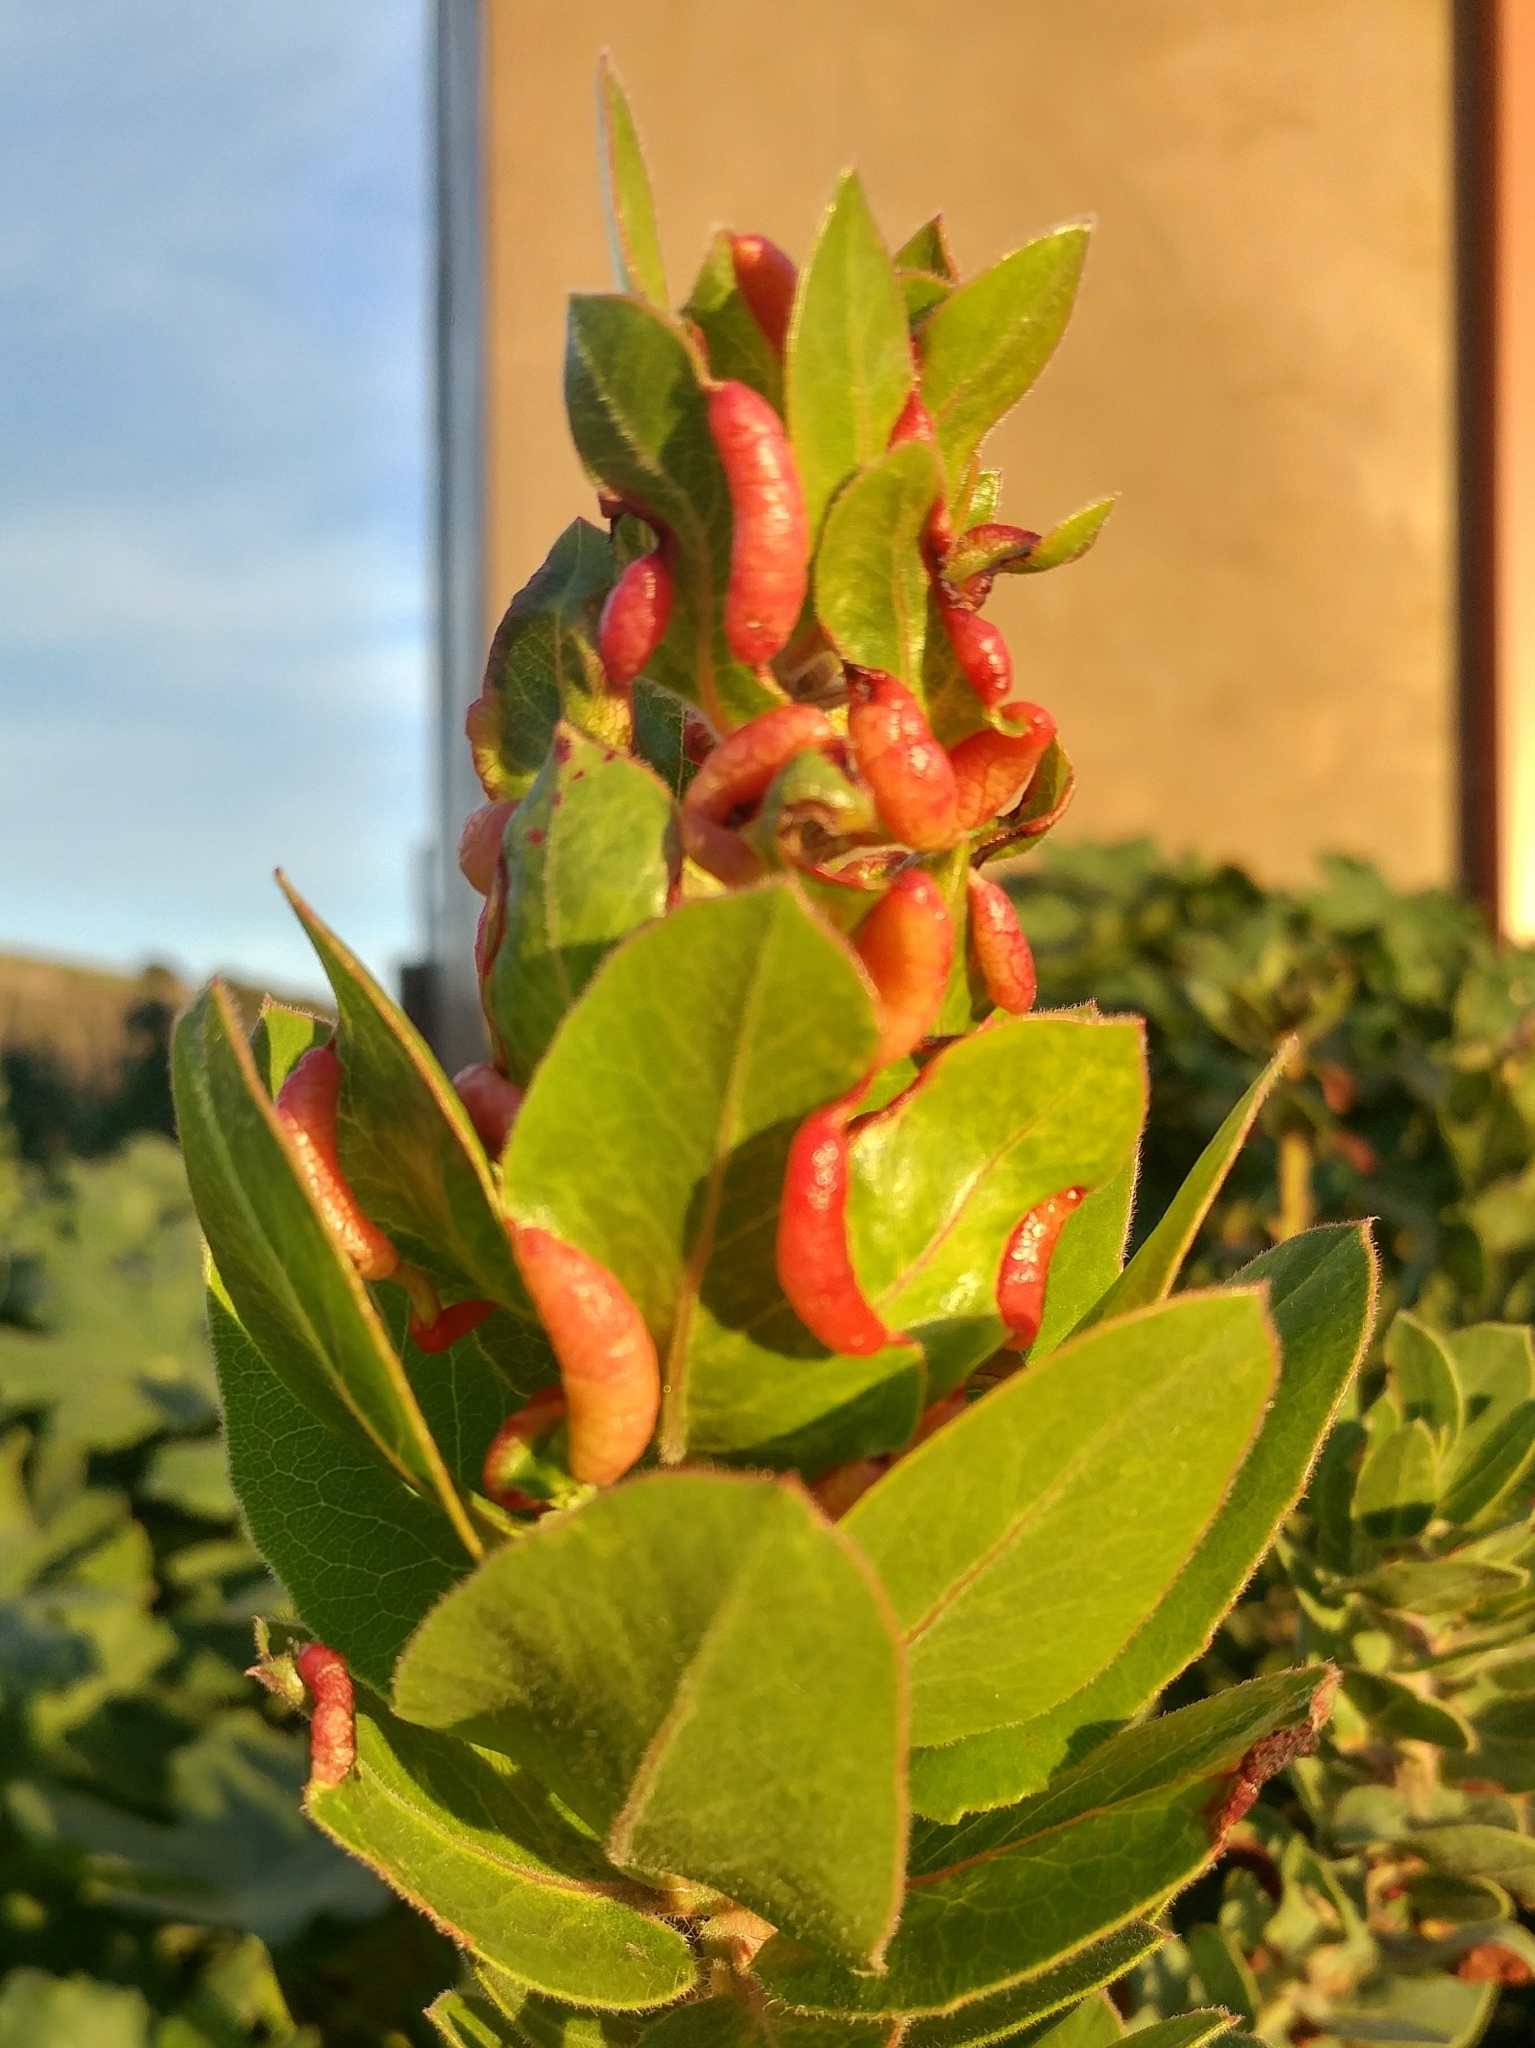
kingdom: Animalia
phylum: Arthropoda
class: Insecta
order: Hemiptera
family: Aphididae
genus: Tamalia
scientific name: Tamalia coweni
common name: Manzanita leafgall aphid
